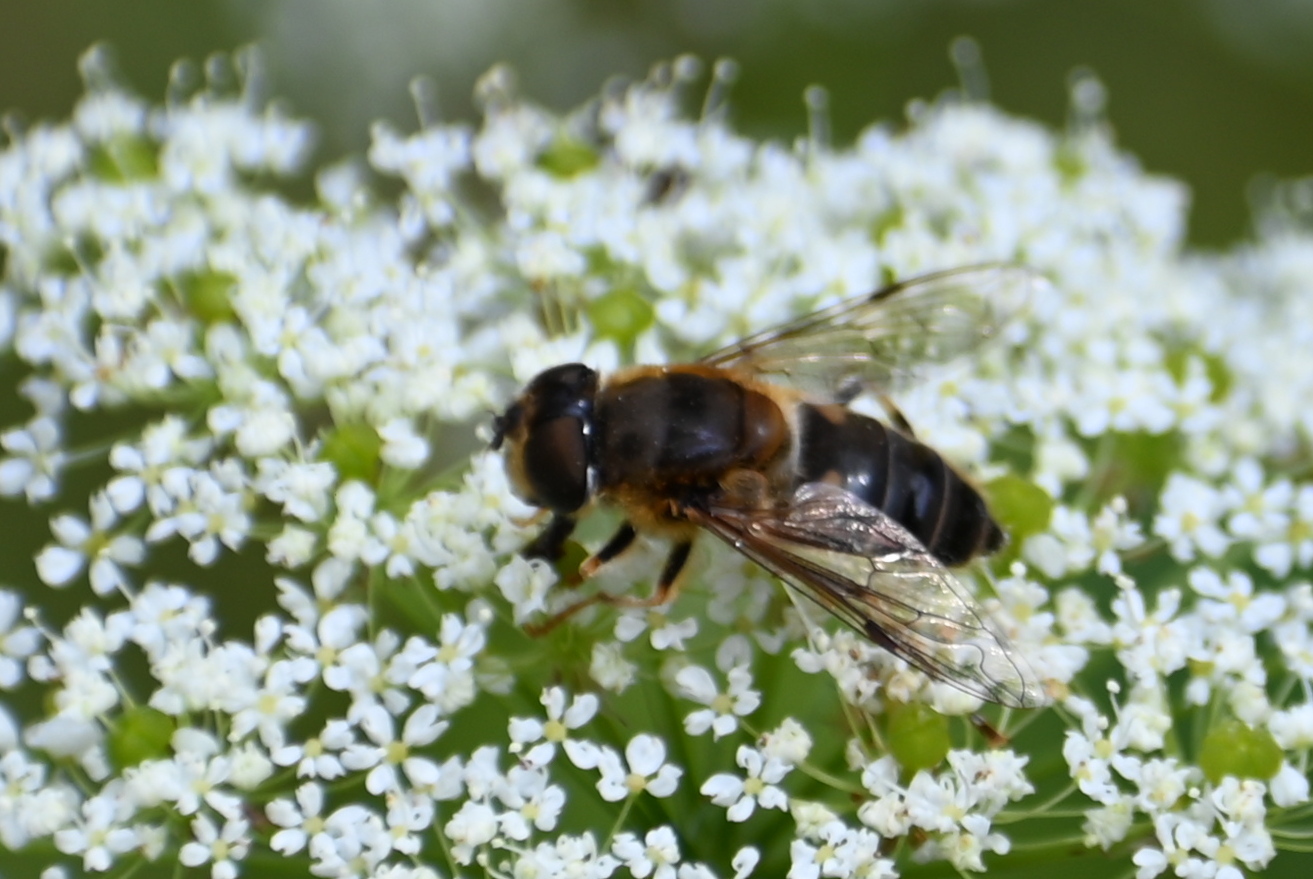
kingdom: Animalia
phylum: Arthropoda
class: Insecta
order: Diptera
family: Syrphidae
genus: Eristalis
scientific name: Eristalis pertinax
